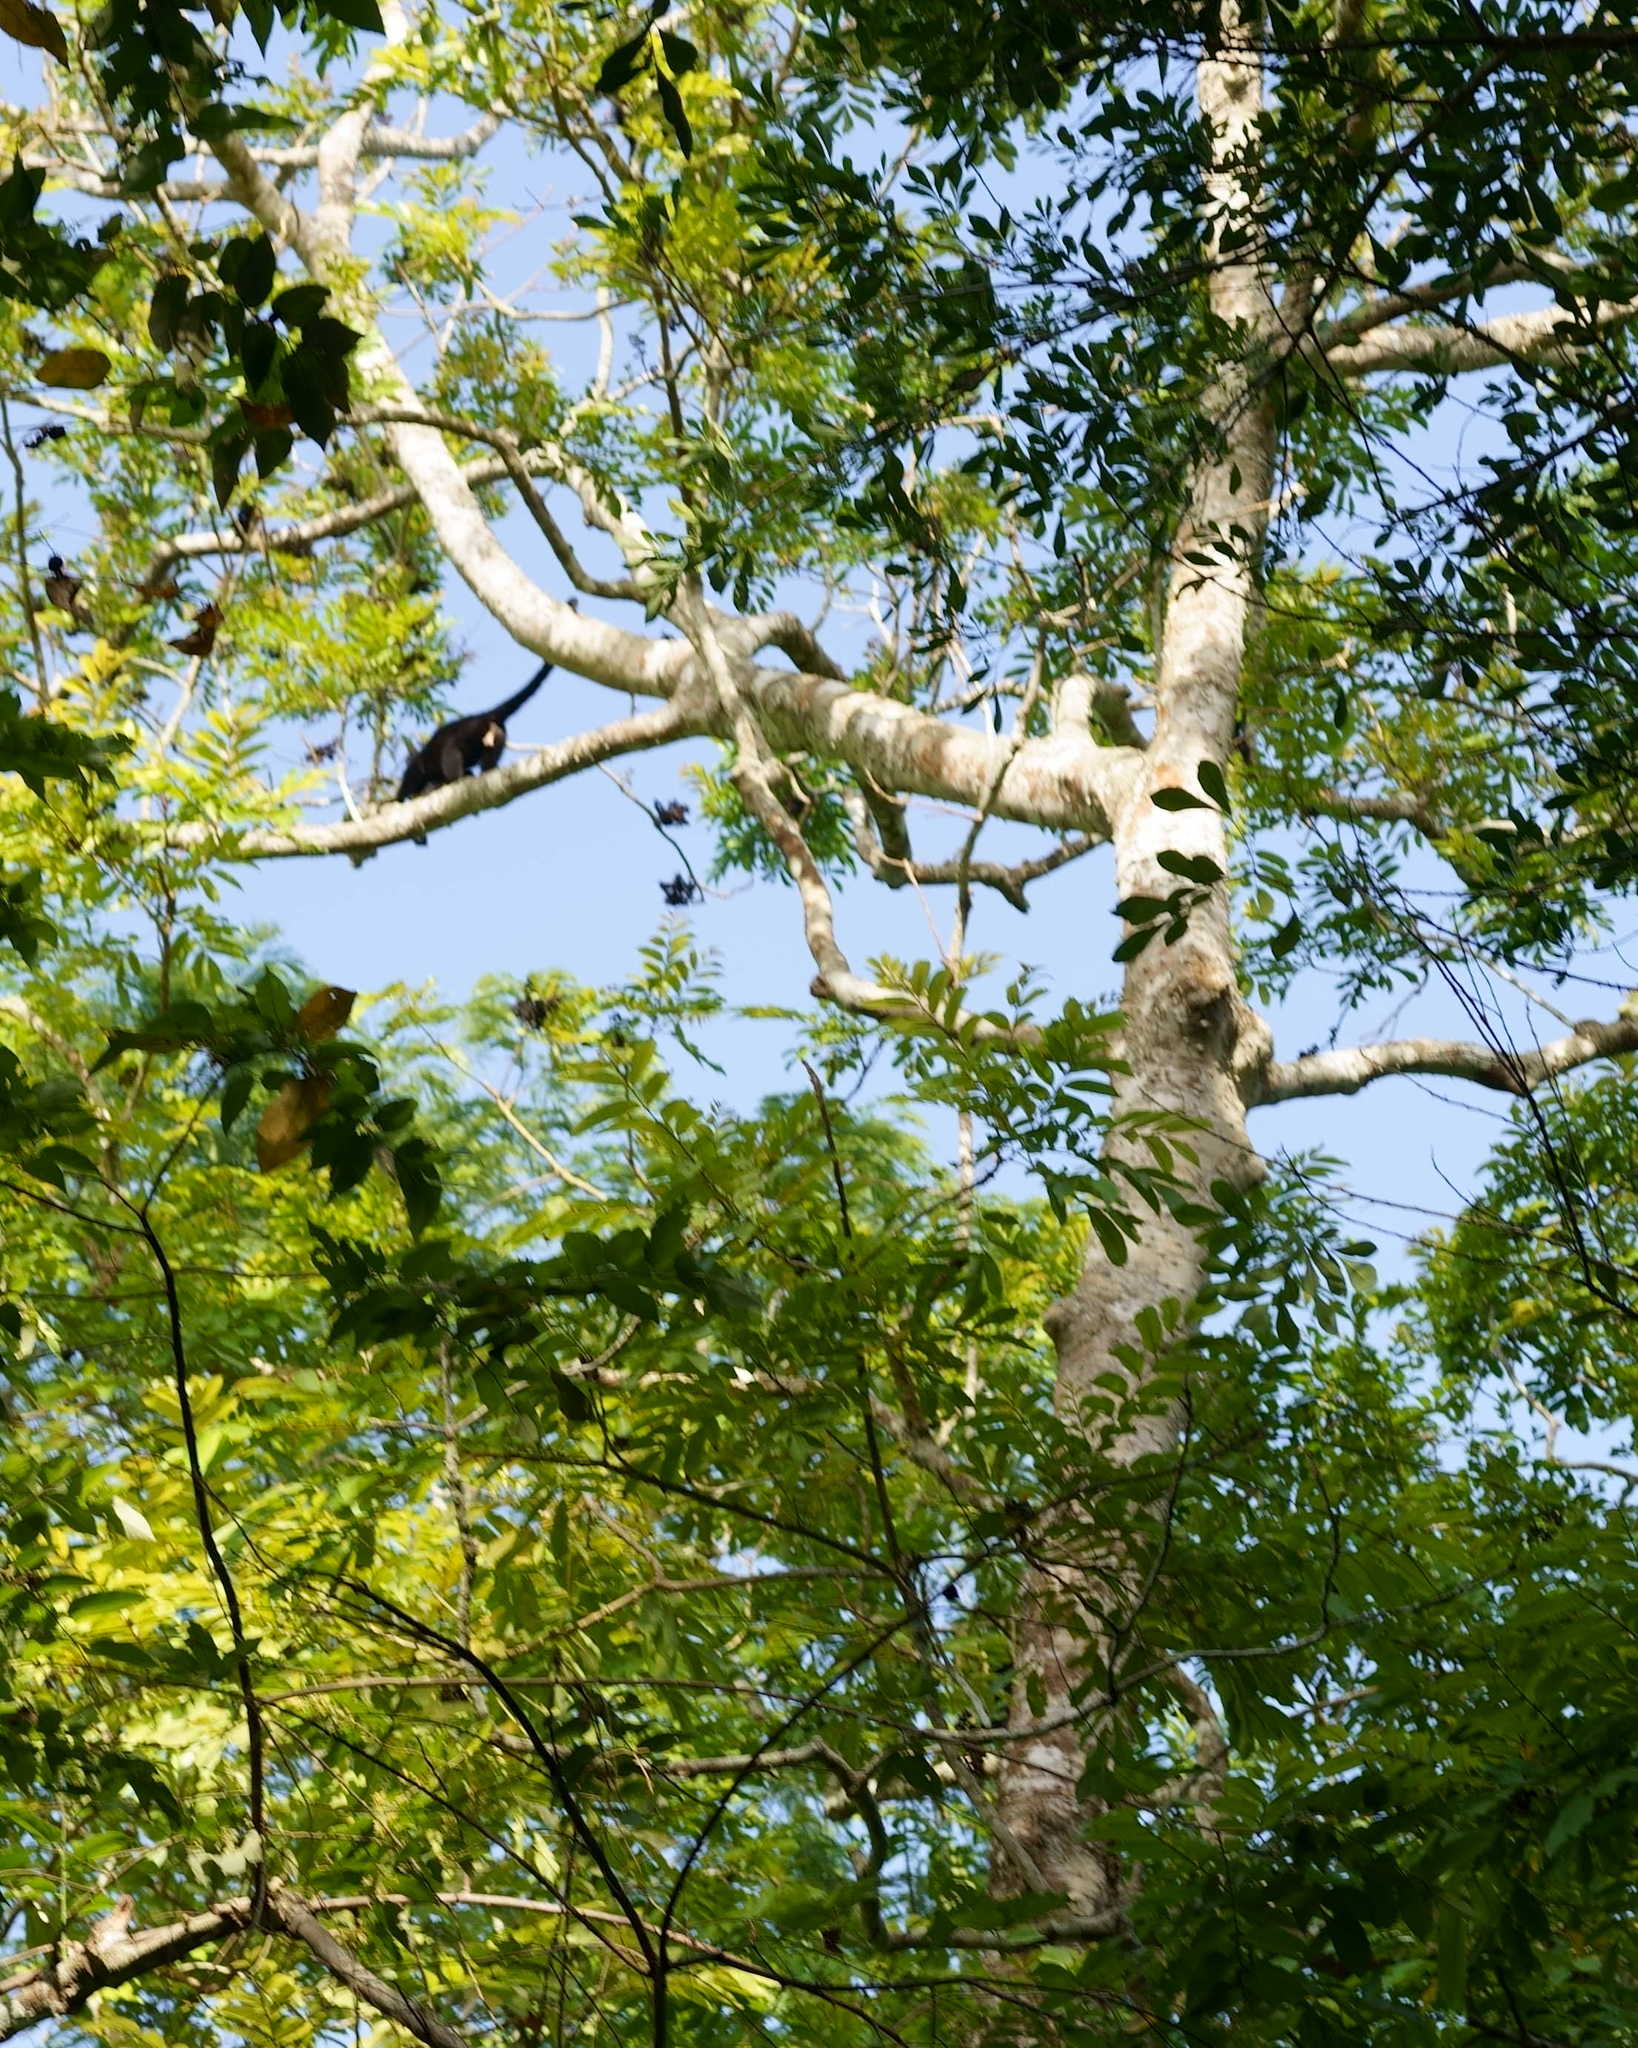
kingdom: Animalia
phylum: Chordata
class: Mammalia
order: Primates
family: Atelidae
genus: Alouatta
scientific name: Alouatta pigra
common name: Guatemalan black howler
